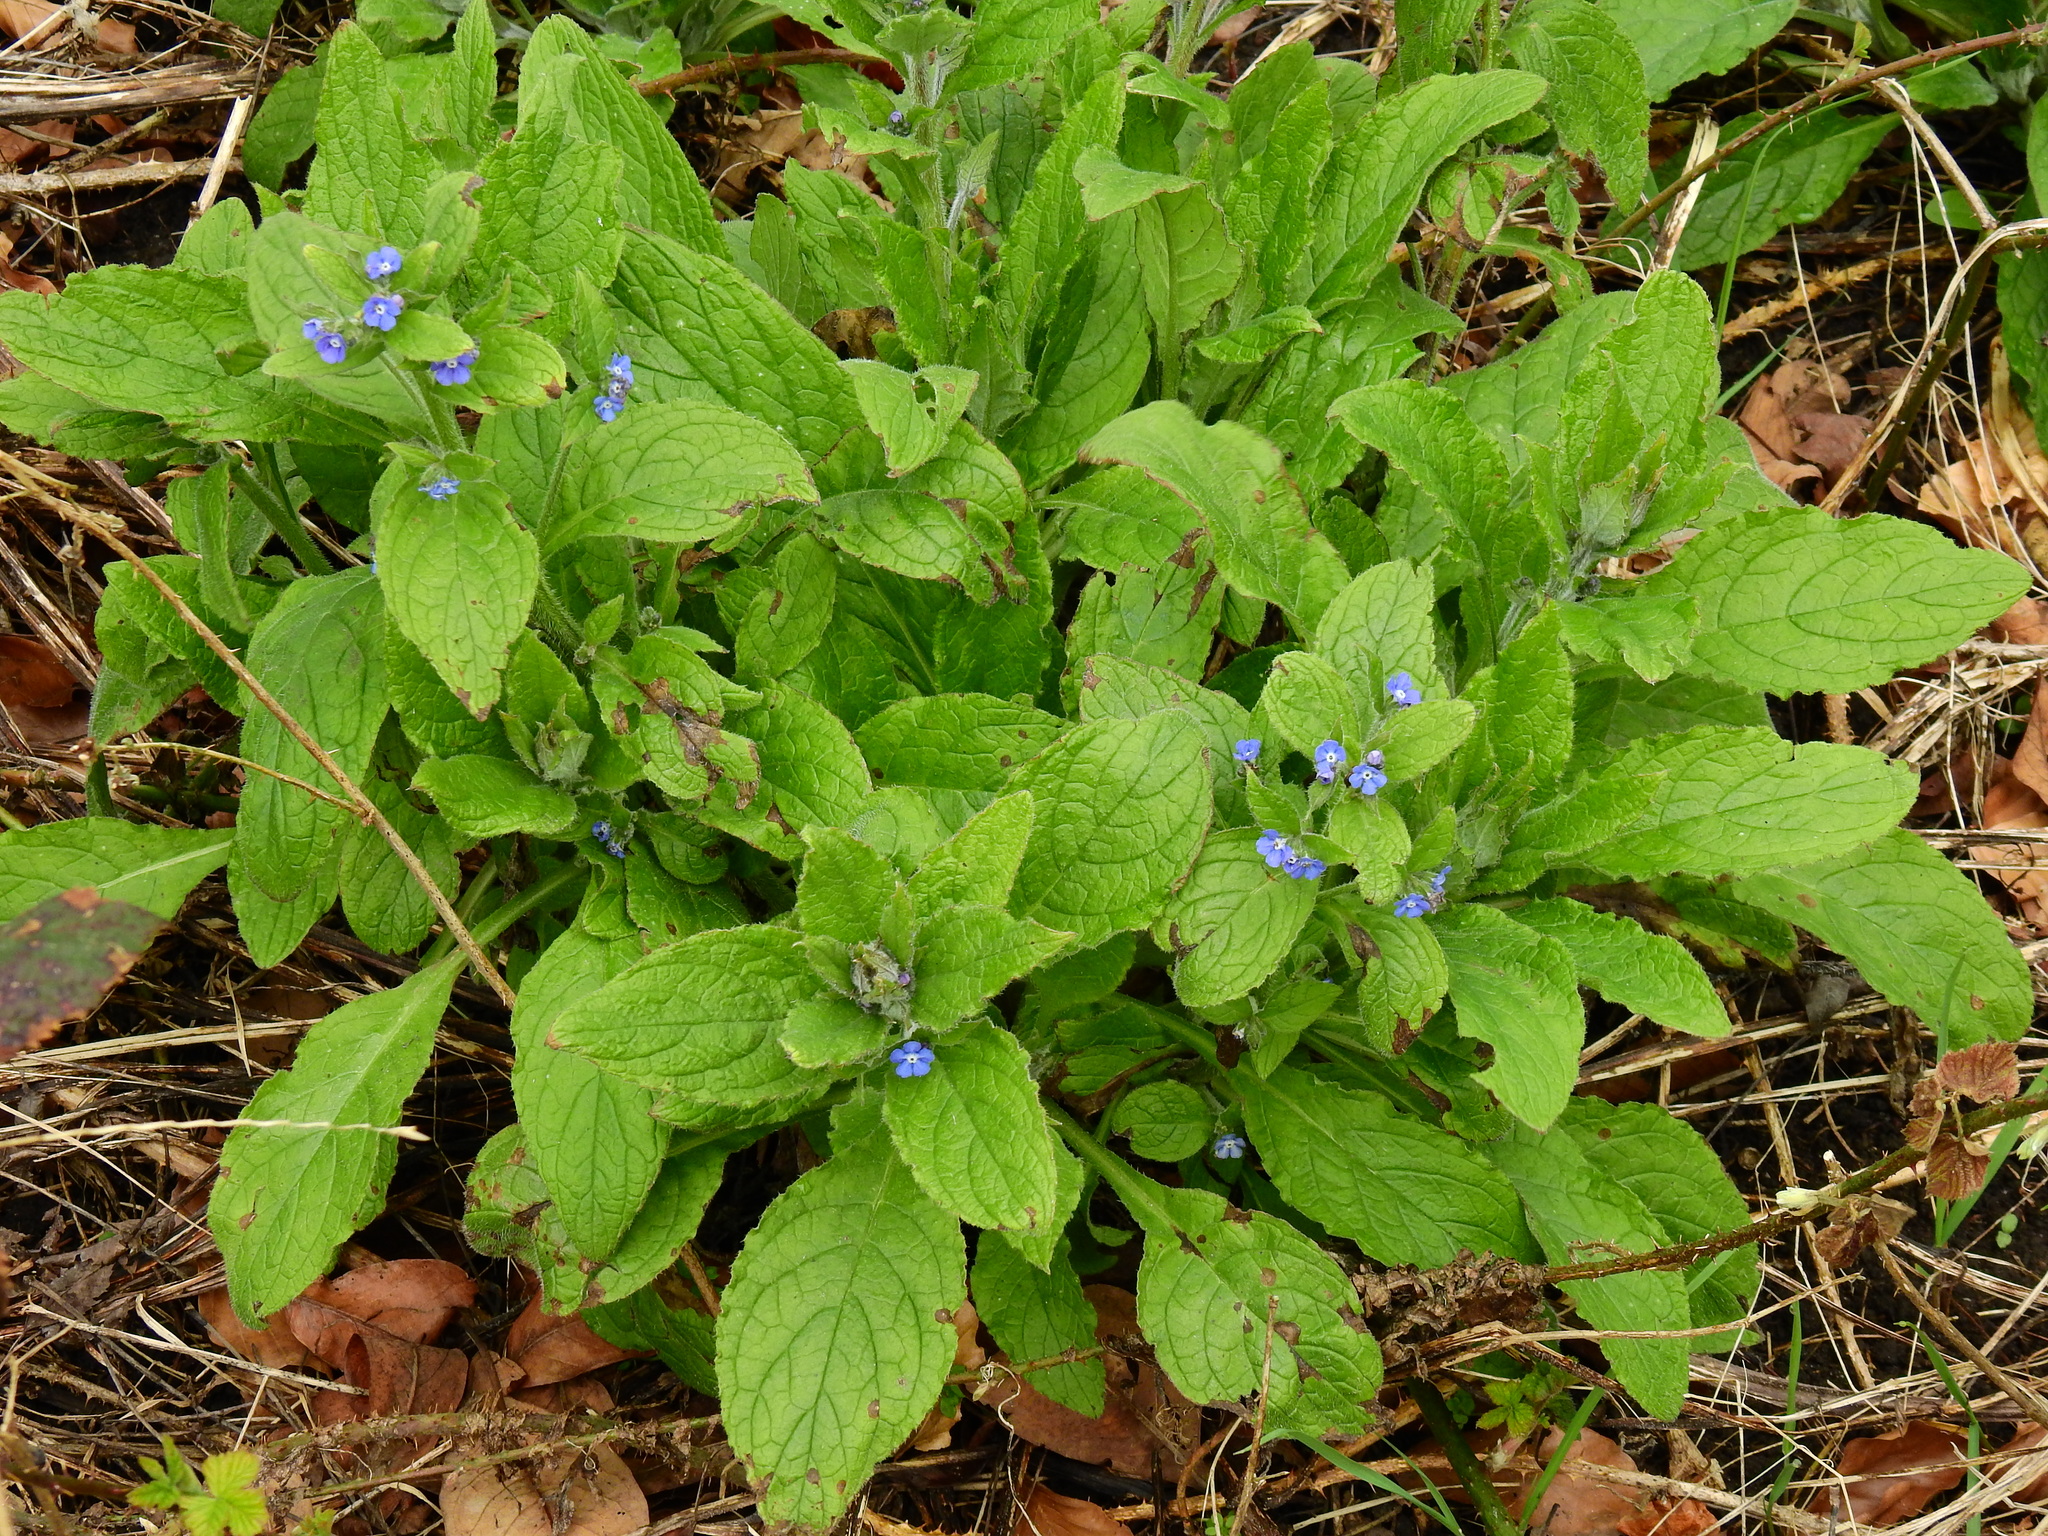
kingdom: Plantae
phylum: Tracheophyta
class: Magnoliopsida
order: Boraginales
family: Boraginaceae
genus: Pentaglottis
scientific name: Pentaglottis sempervirens
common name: Green alkanet
